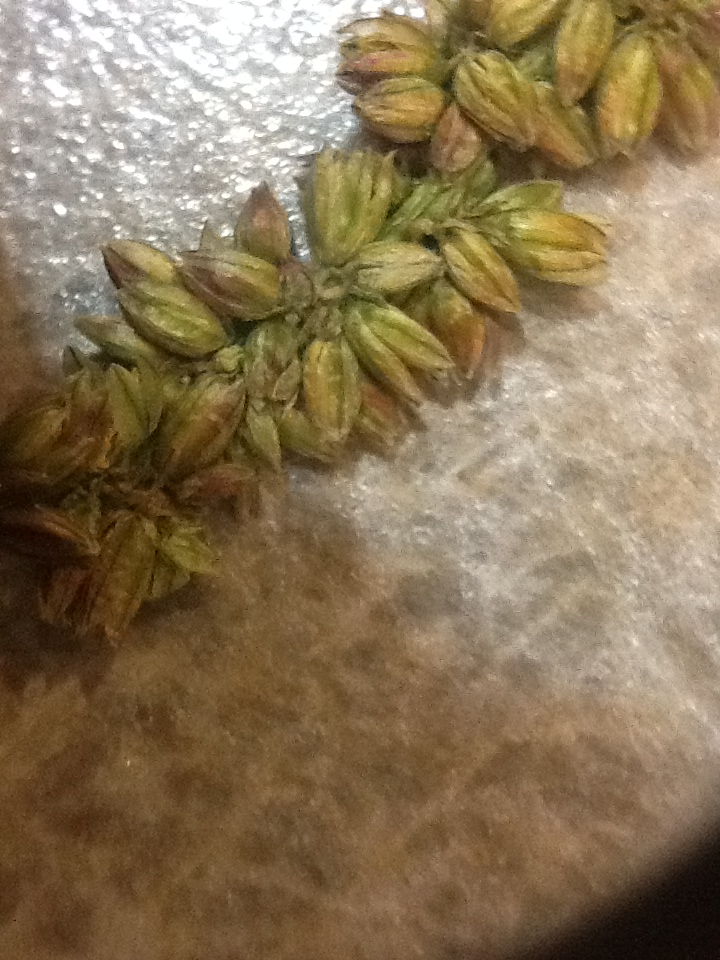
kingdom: Plantae
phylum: Tracheophyta
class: Magnoliopsida
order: Caryophyllales
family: Amaranthaceae
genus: Amaranthus
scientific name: Amaranthus
